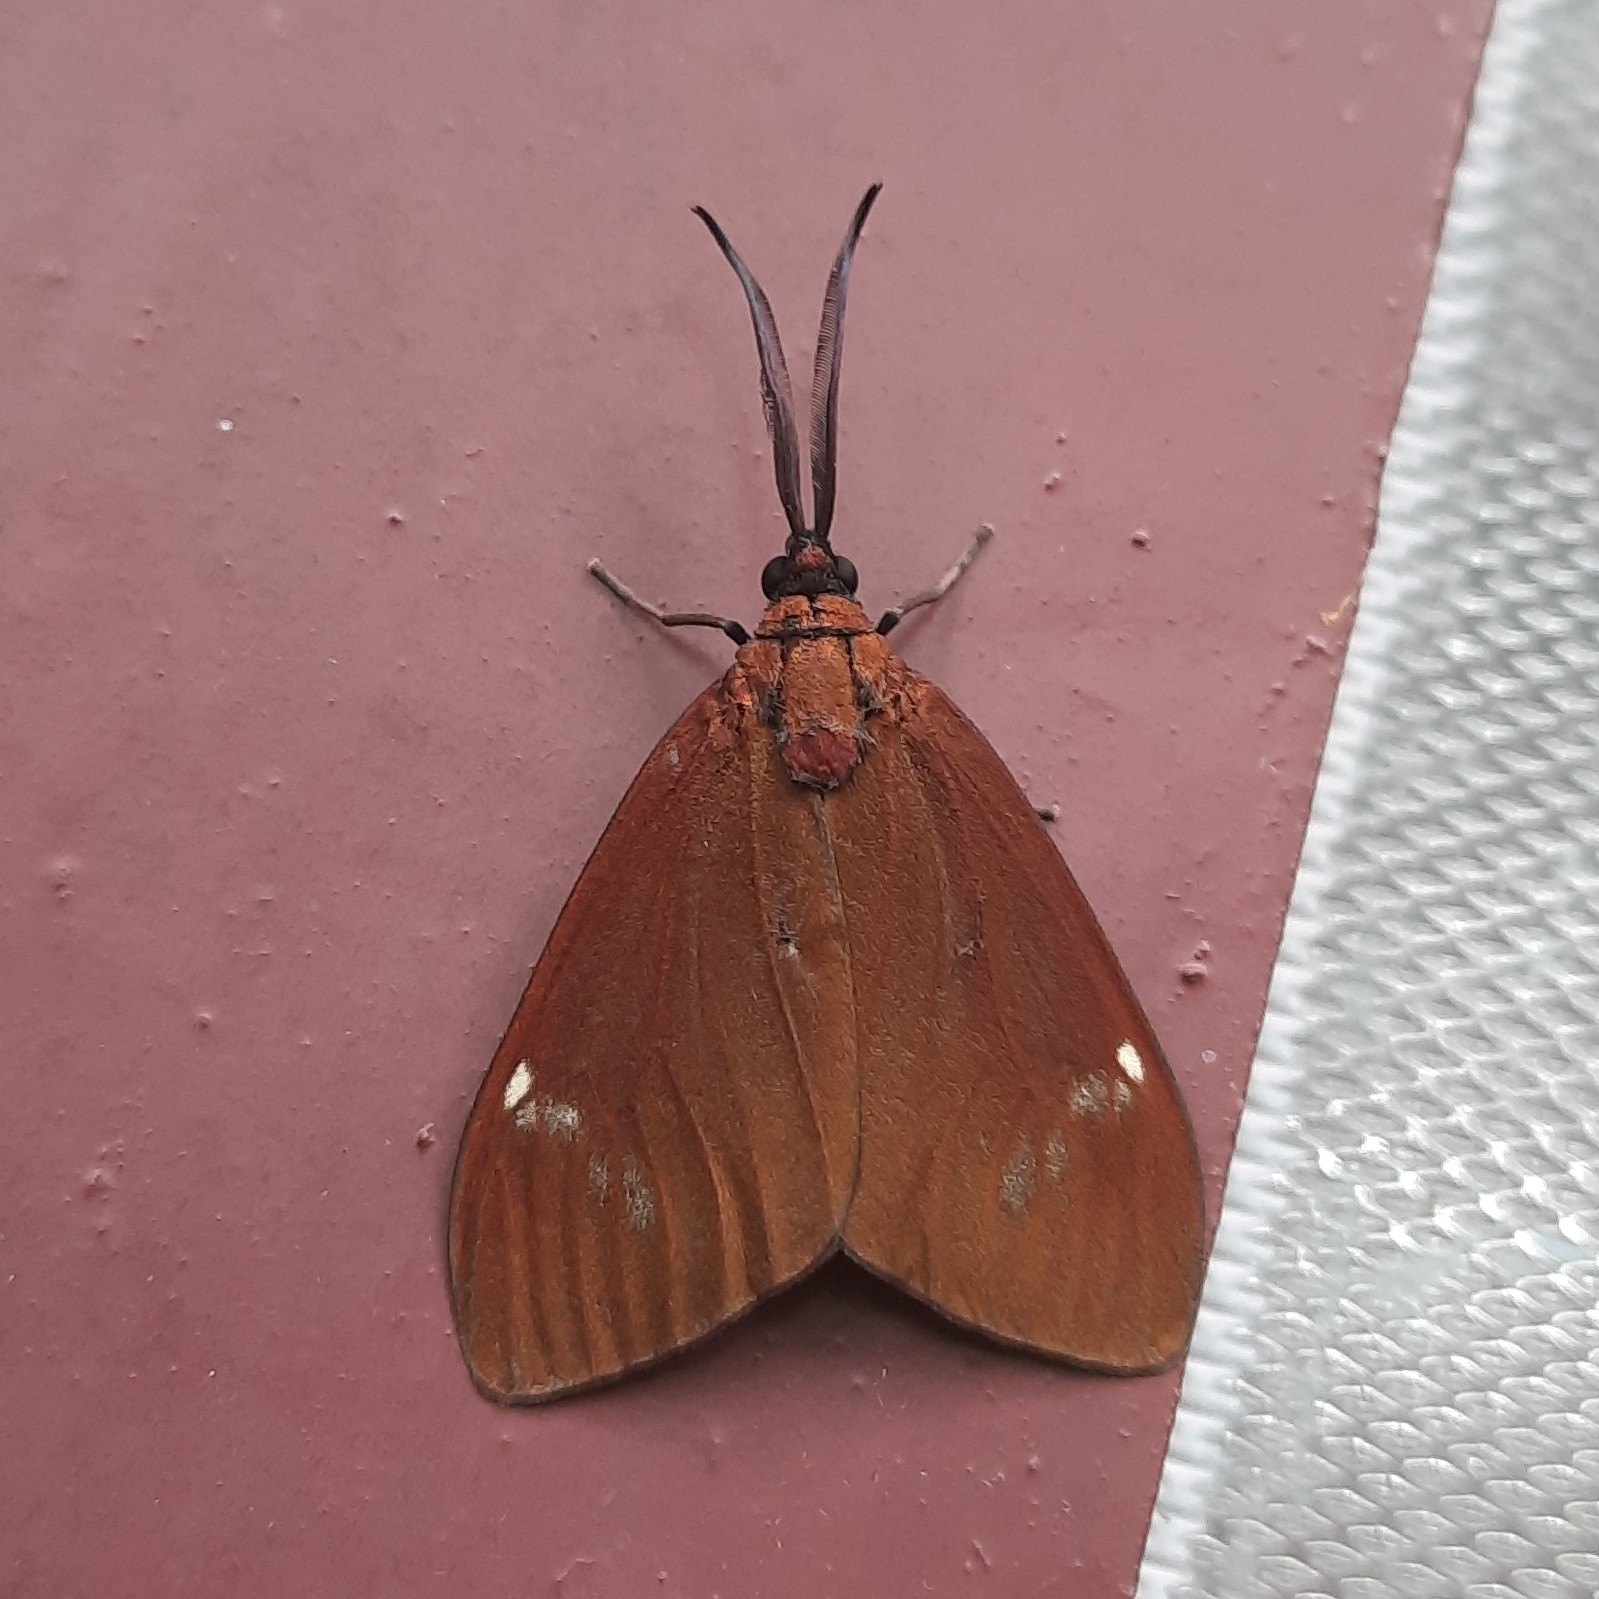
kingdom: Animalia
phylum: Arthropoda
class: Insecta
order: Lepidoptera
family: Zygaenidae
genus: Cyclosia
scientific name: Cyclosia
